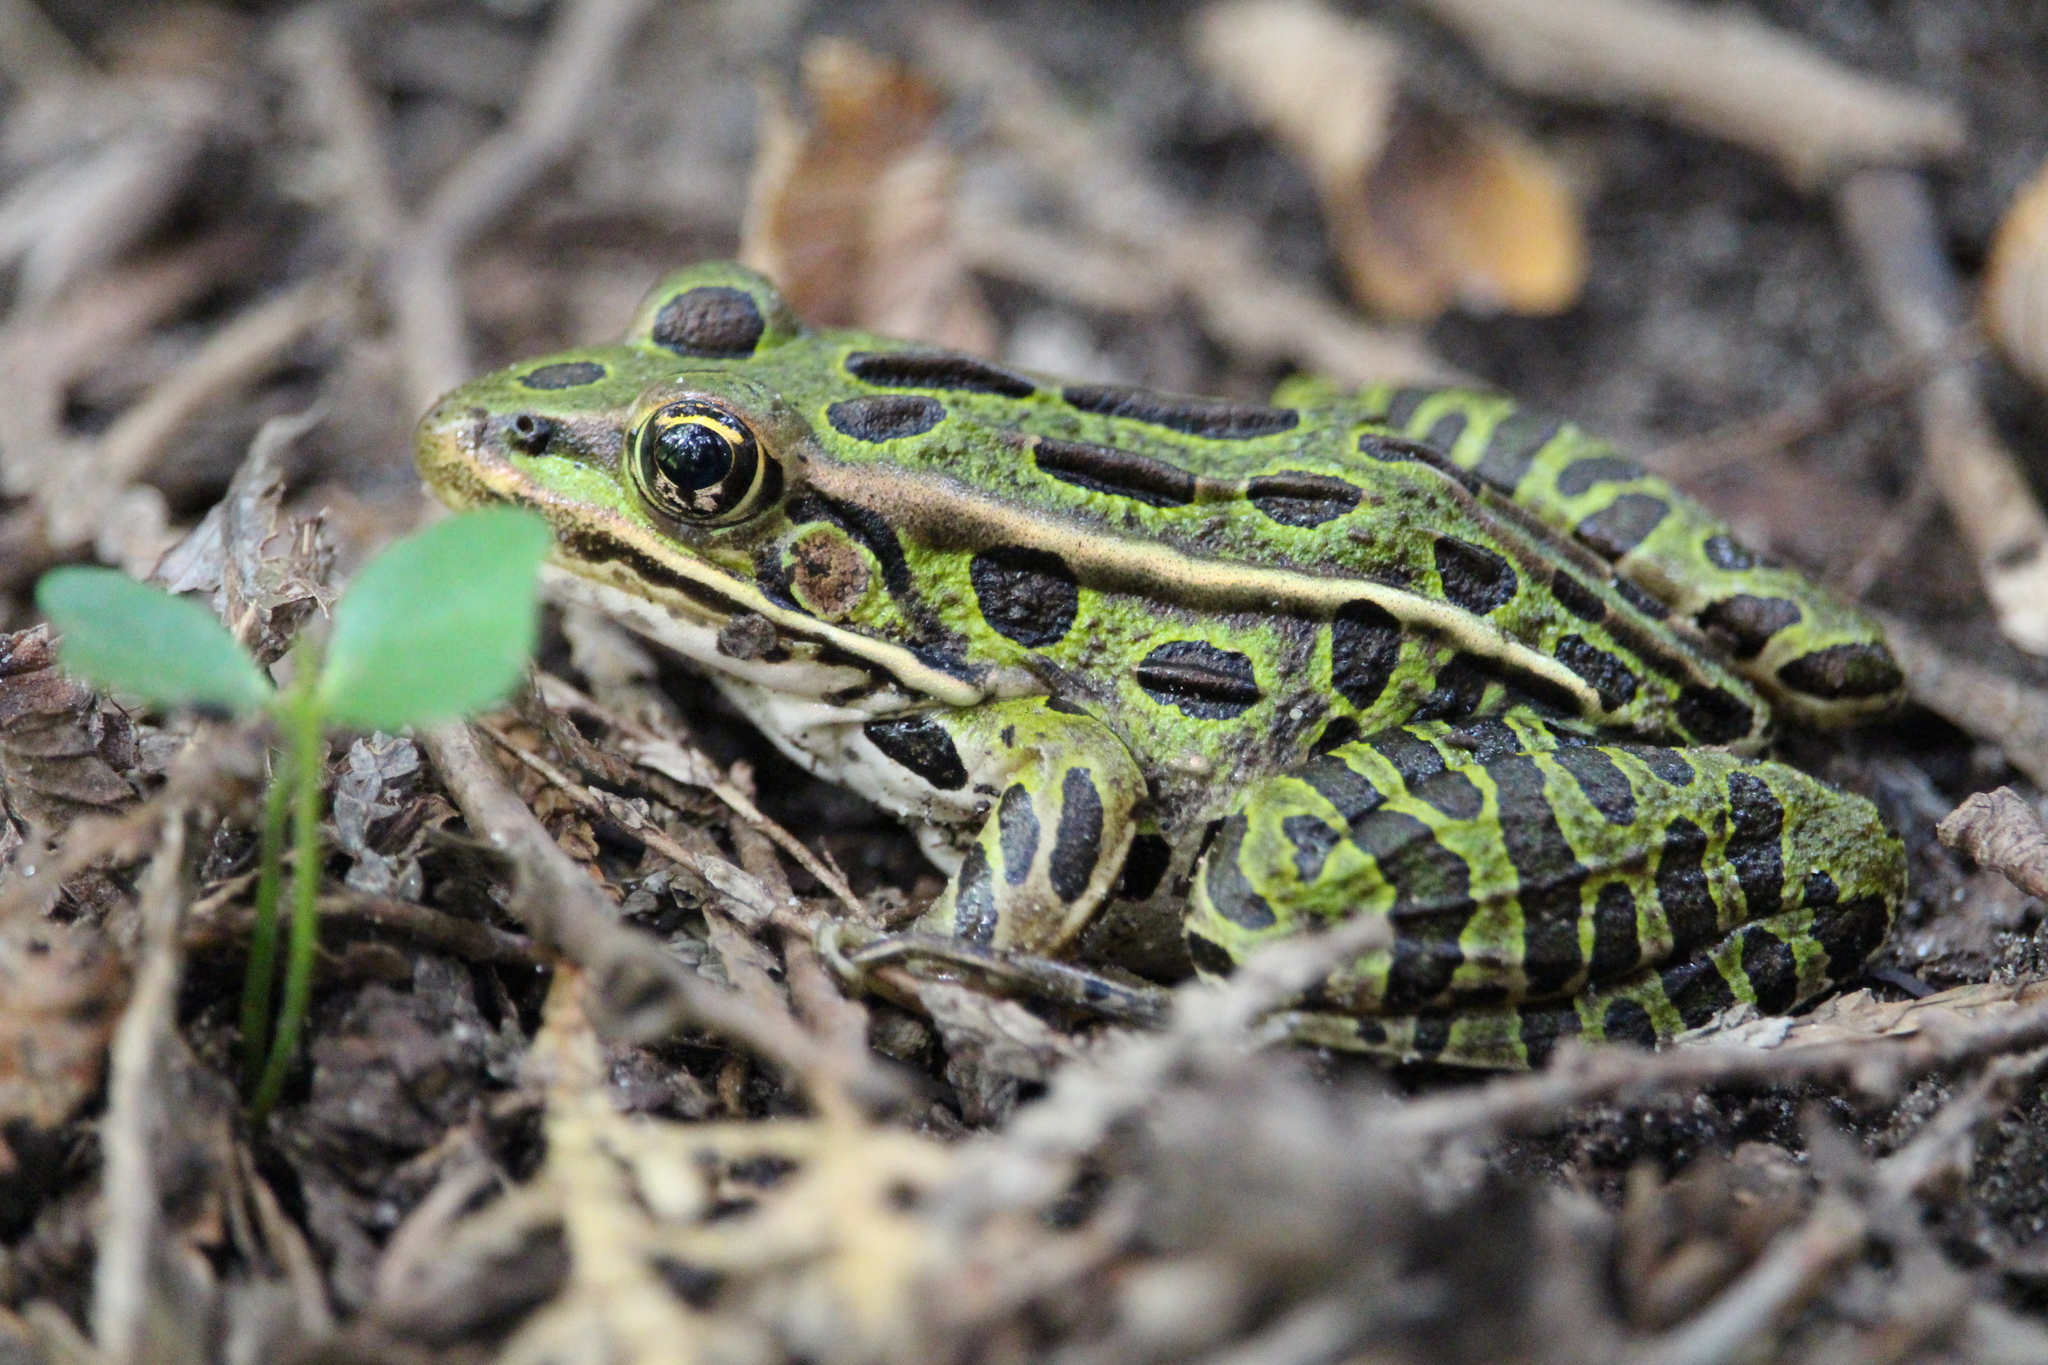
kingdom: Animalia
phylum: Chordata
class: Amphibia
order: Anura
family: Ranidae
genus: Lithobates
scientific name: Lithobates pipiens
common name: Northern leopard frog
